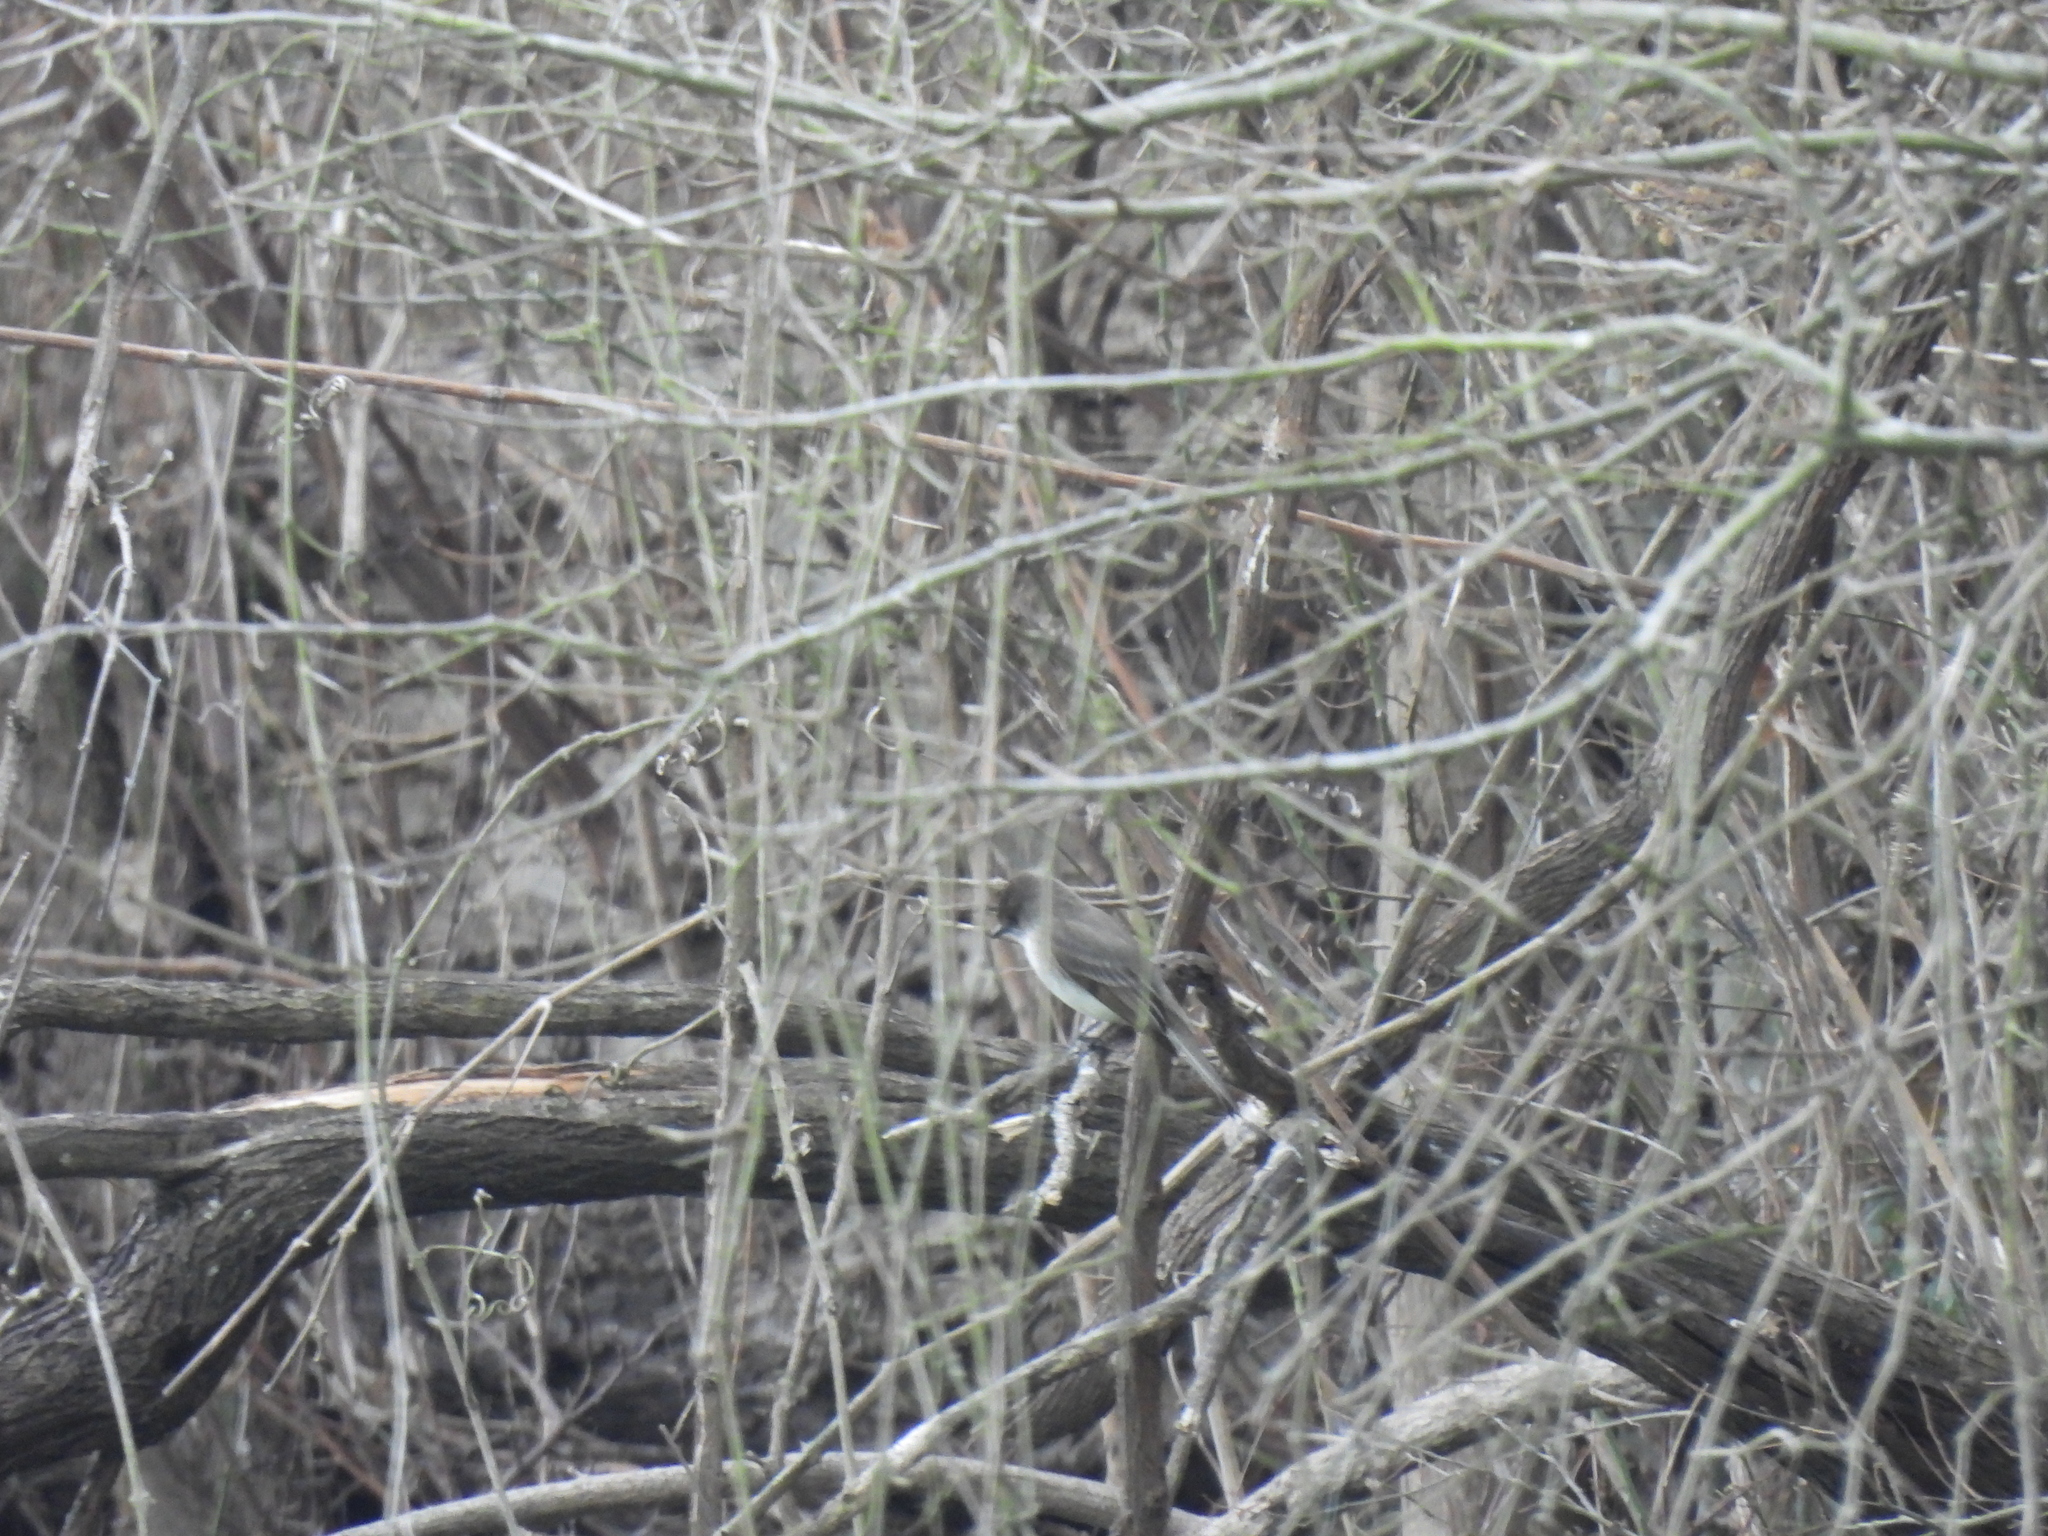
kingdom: Animalia
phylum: Chordata
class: Aves
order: Passeriformes
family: Tyrannidae
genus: Sayornis
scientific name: Sayornis phoebe
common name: Eastern phoebe
